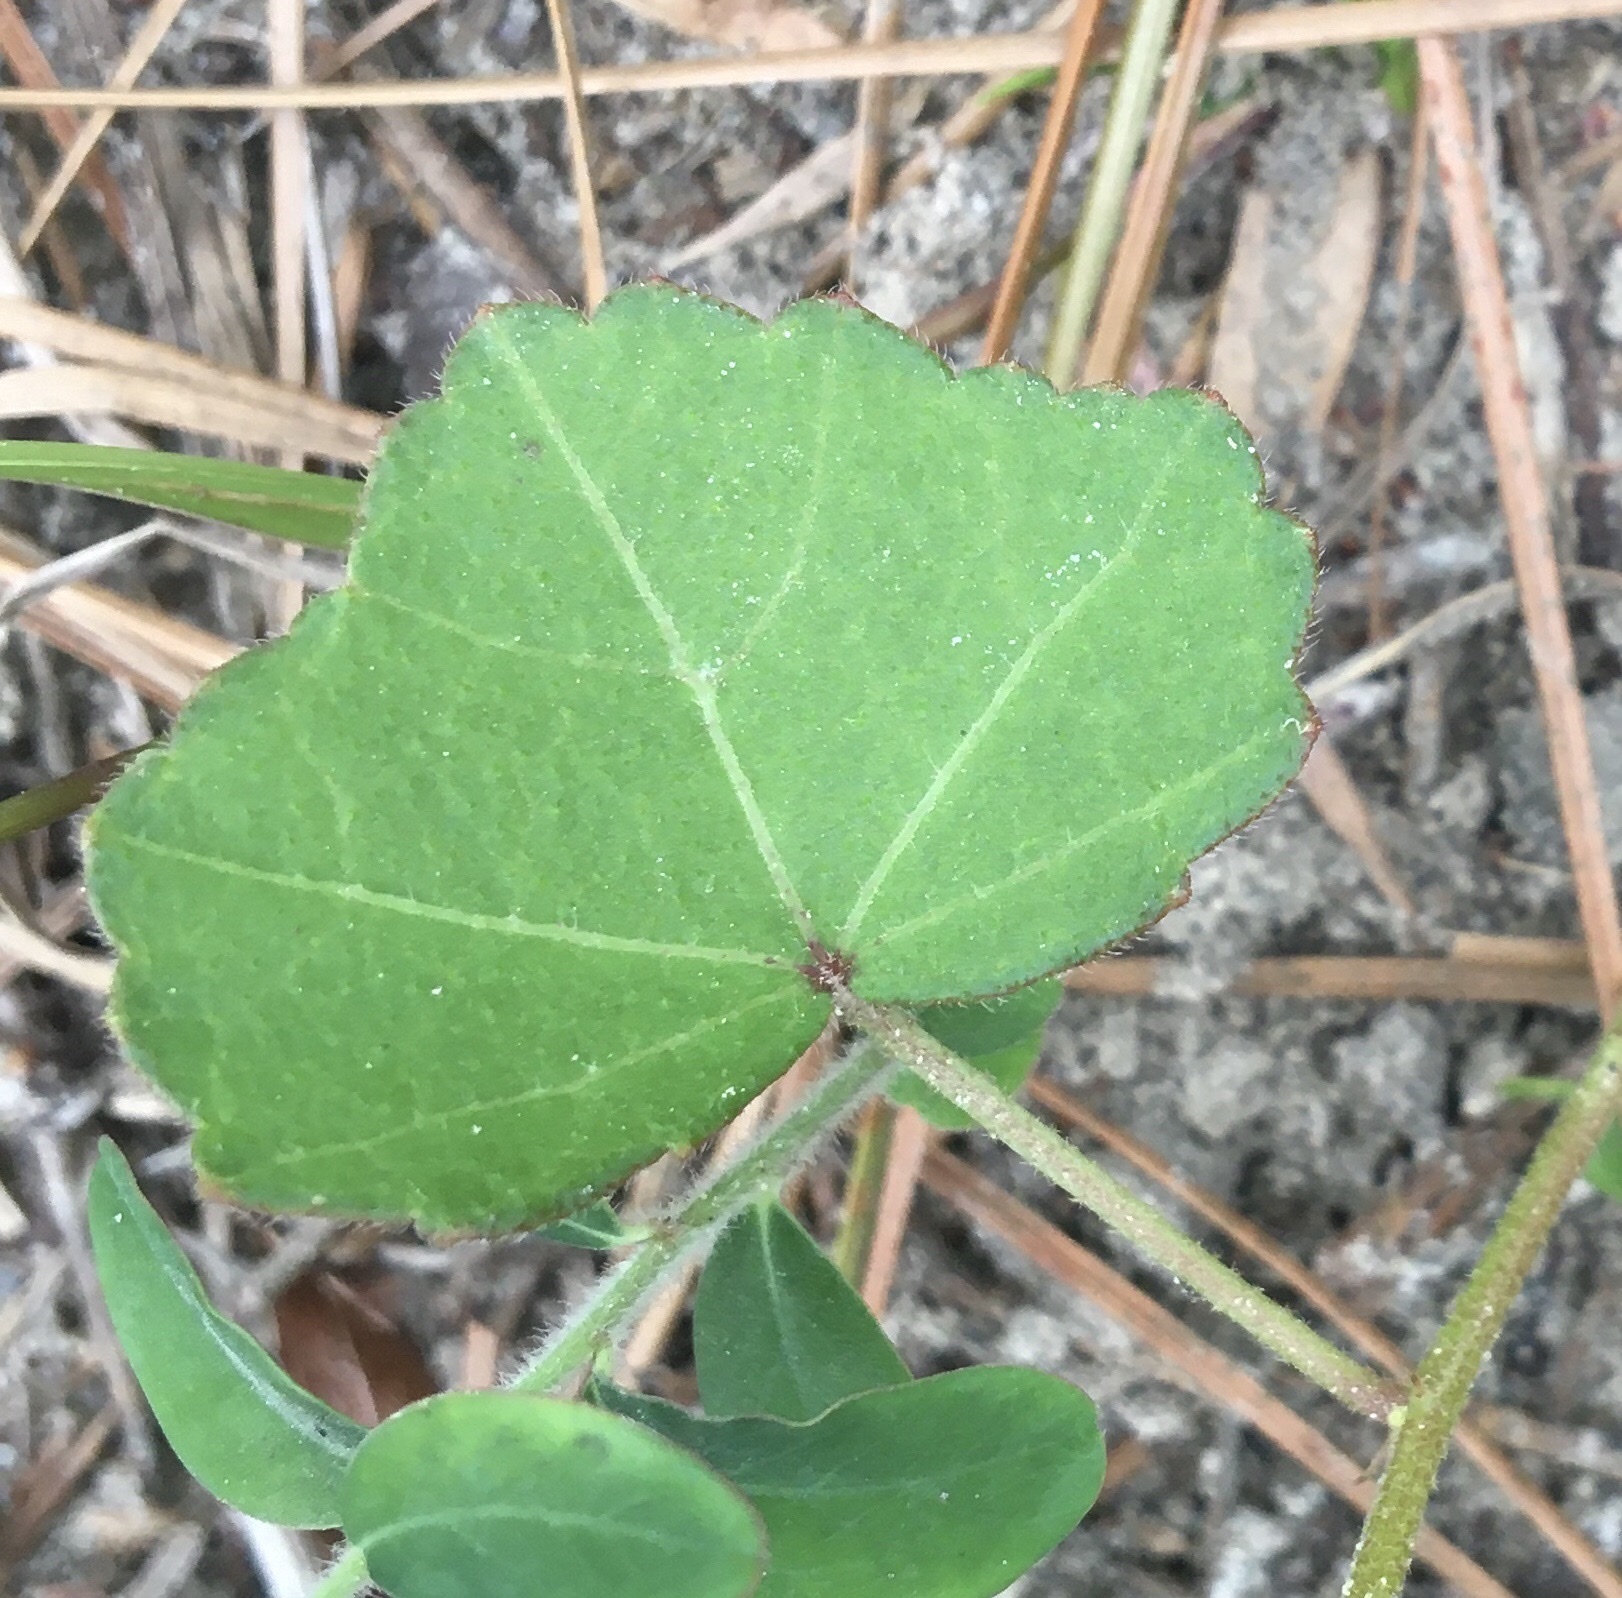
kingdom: Plantae
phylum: Tracheophyta
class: Magnoliopsida
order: Malvales
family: Malvaceae
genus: Hibiscus
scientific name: Hibiscus aculeatus
